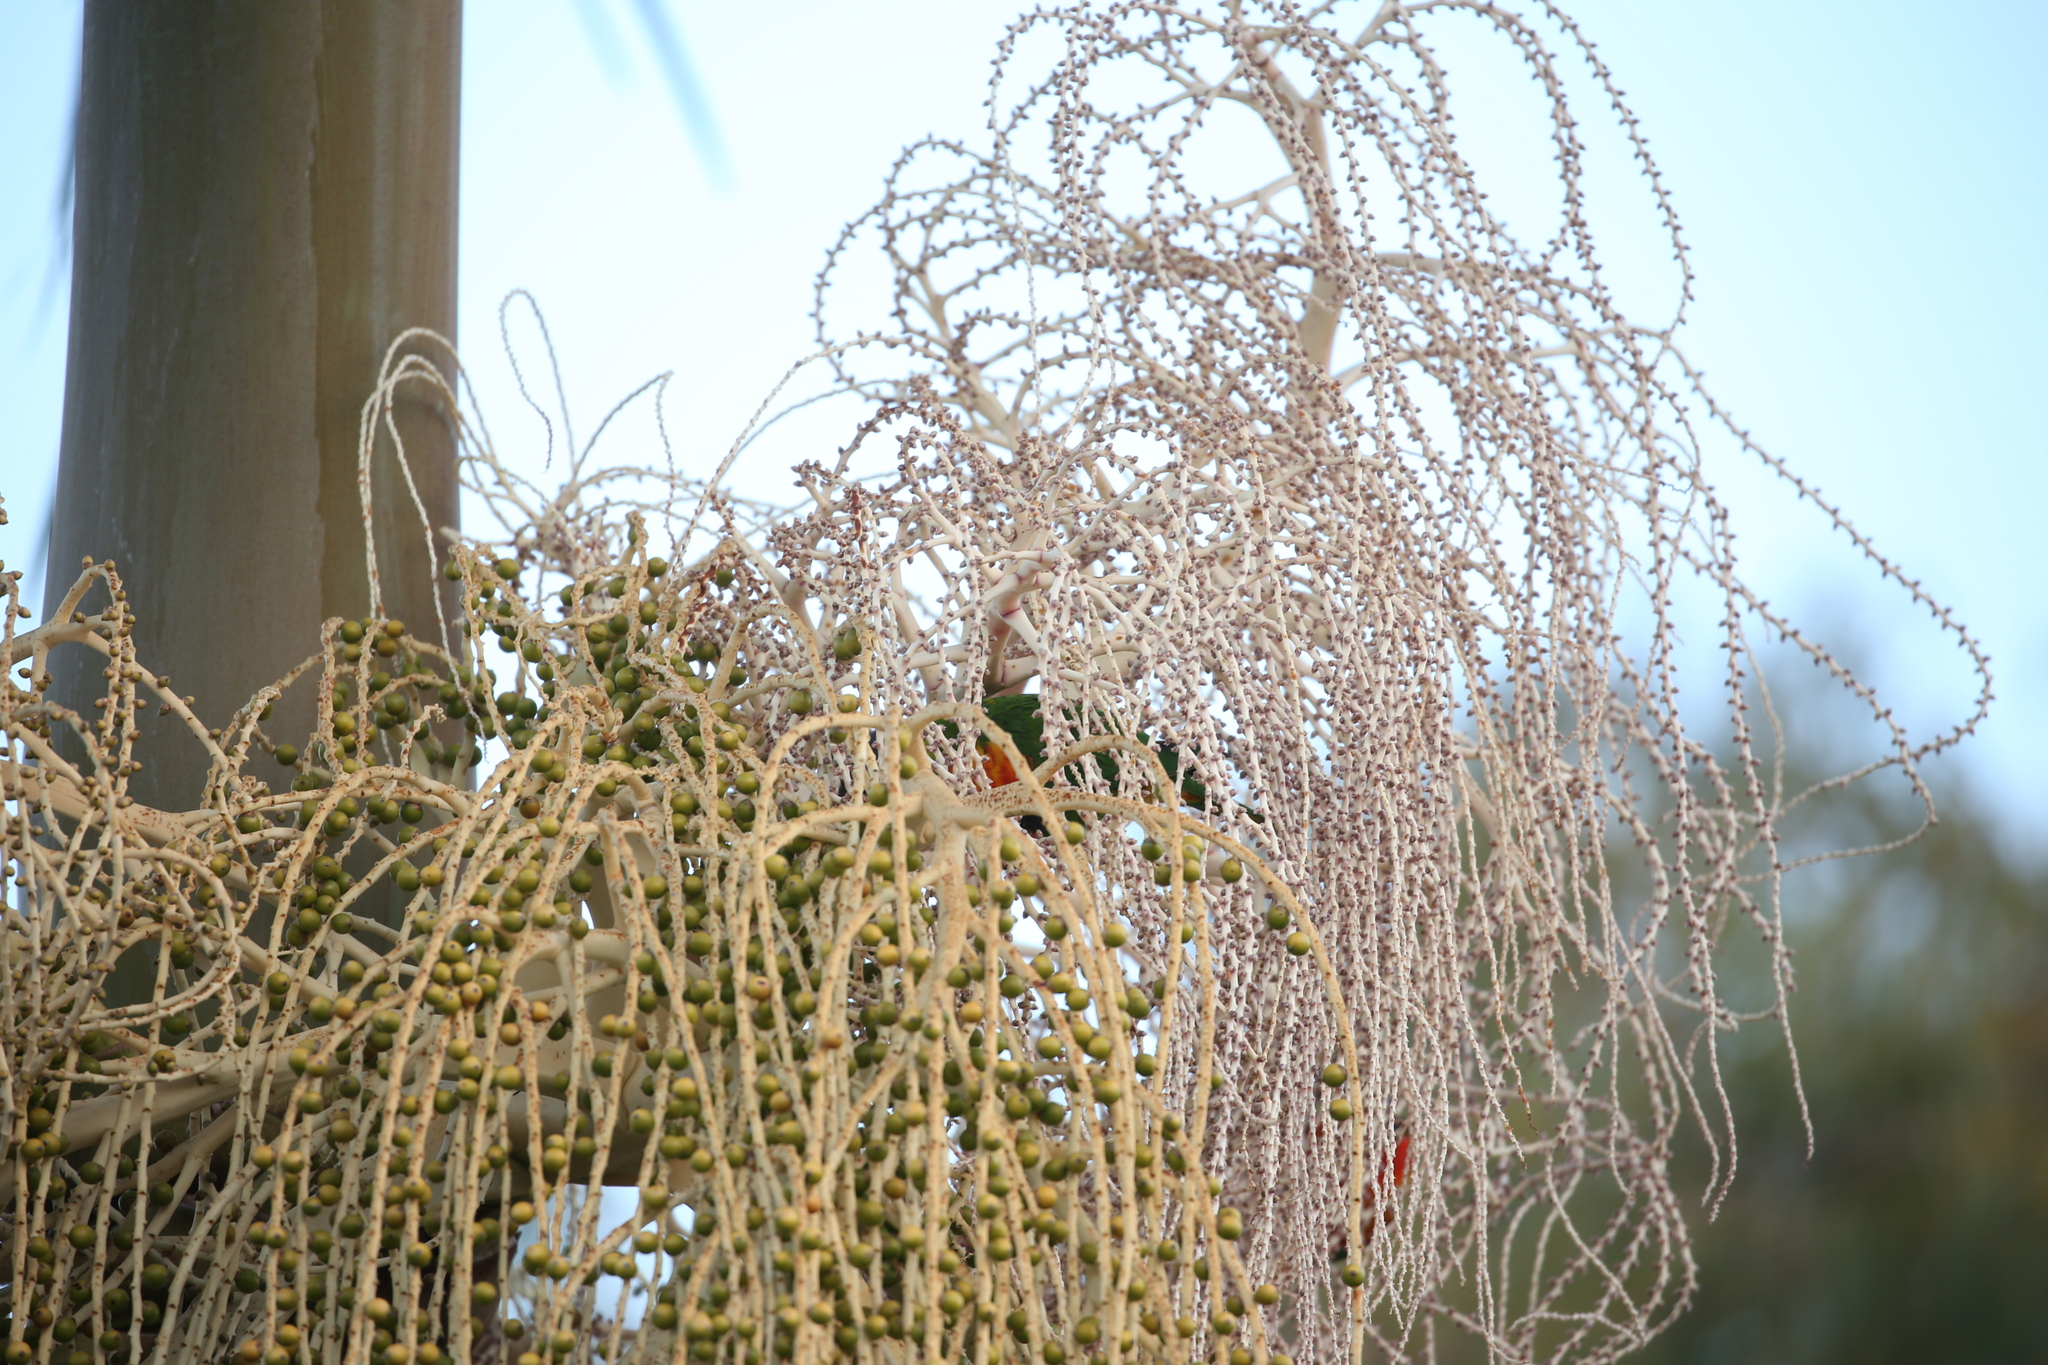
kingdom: Animalia
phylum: Chordata
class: Aves
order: Psittaciformes
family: Psittacidae
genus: Trichoglossus
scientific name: Trichoglossus haematodus
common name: Coconut lorikeet
